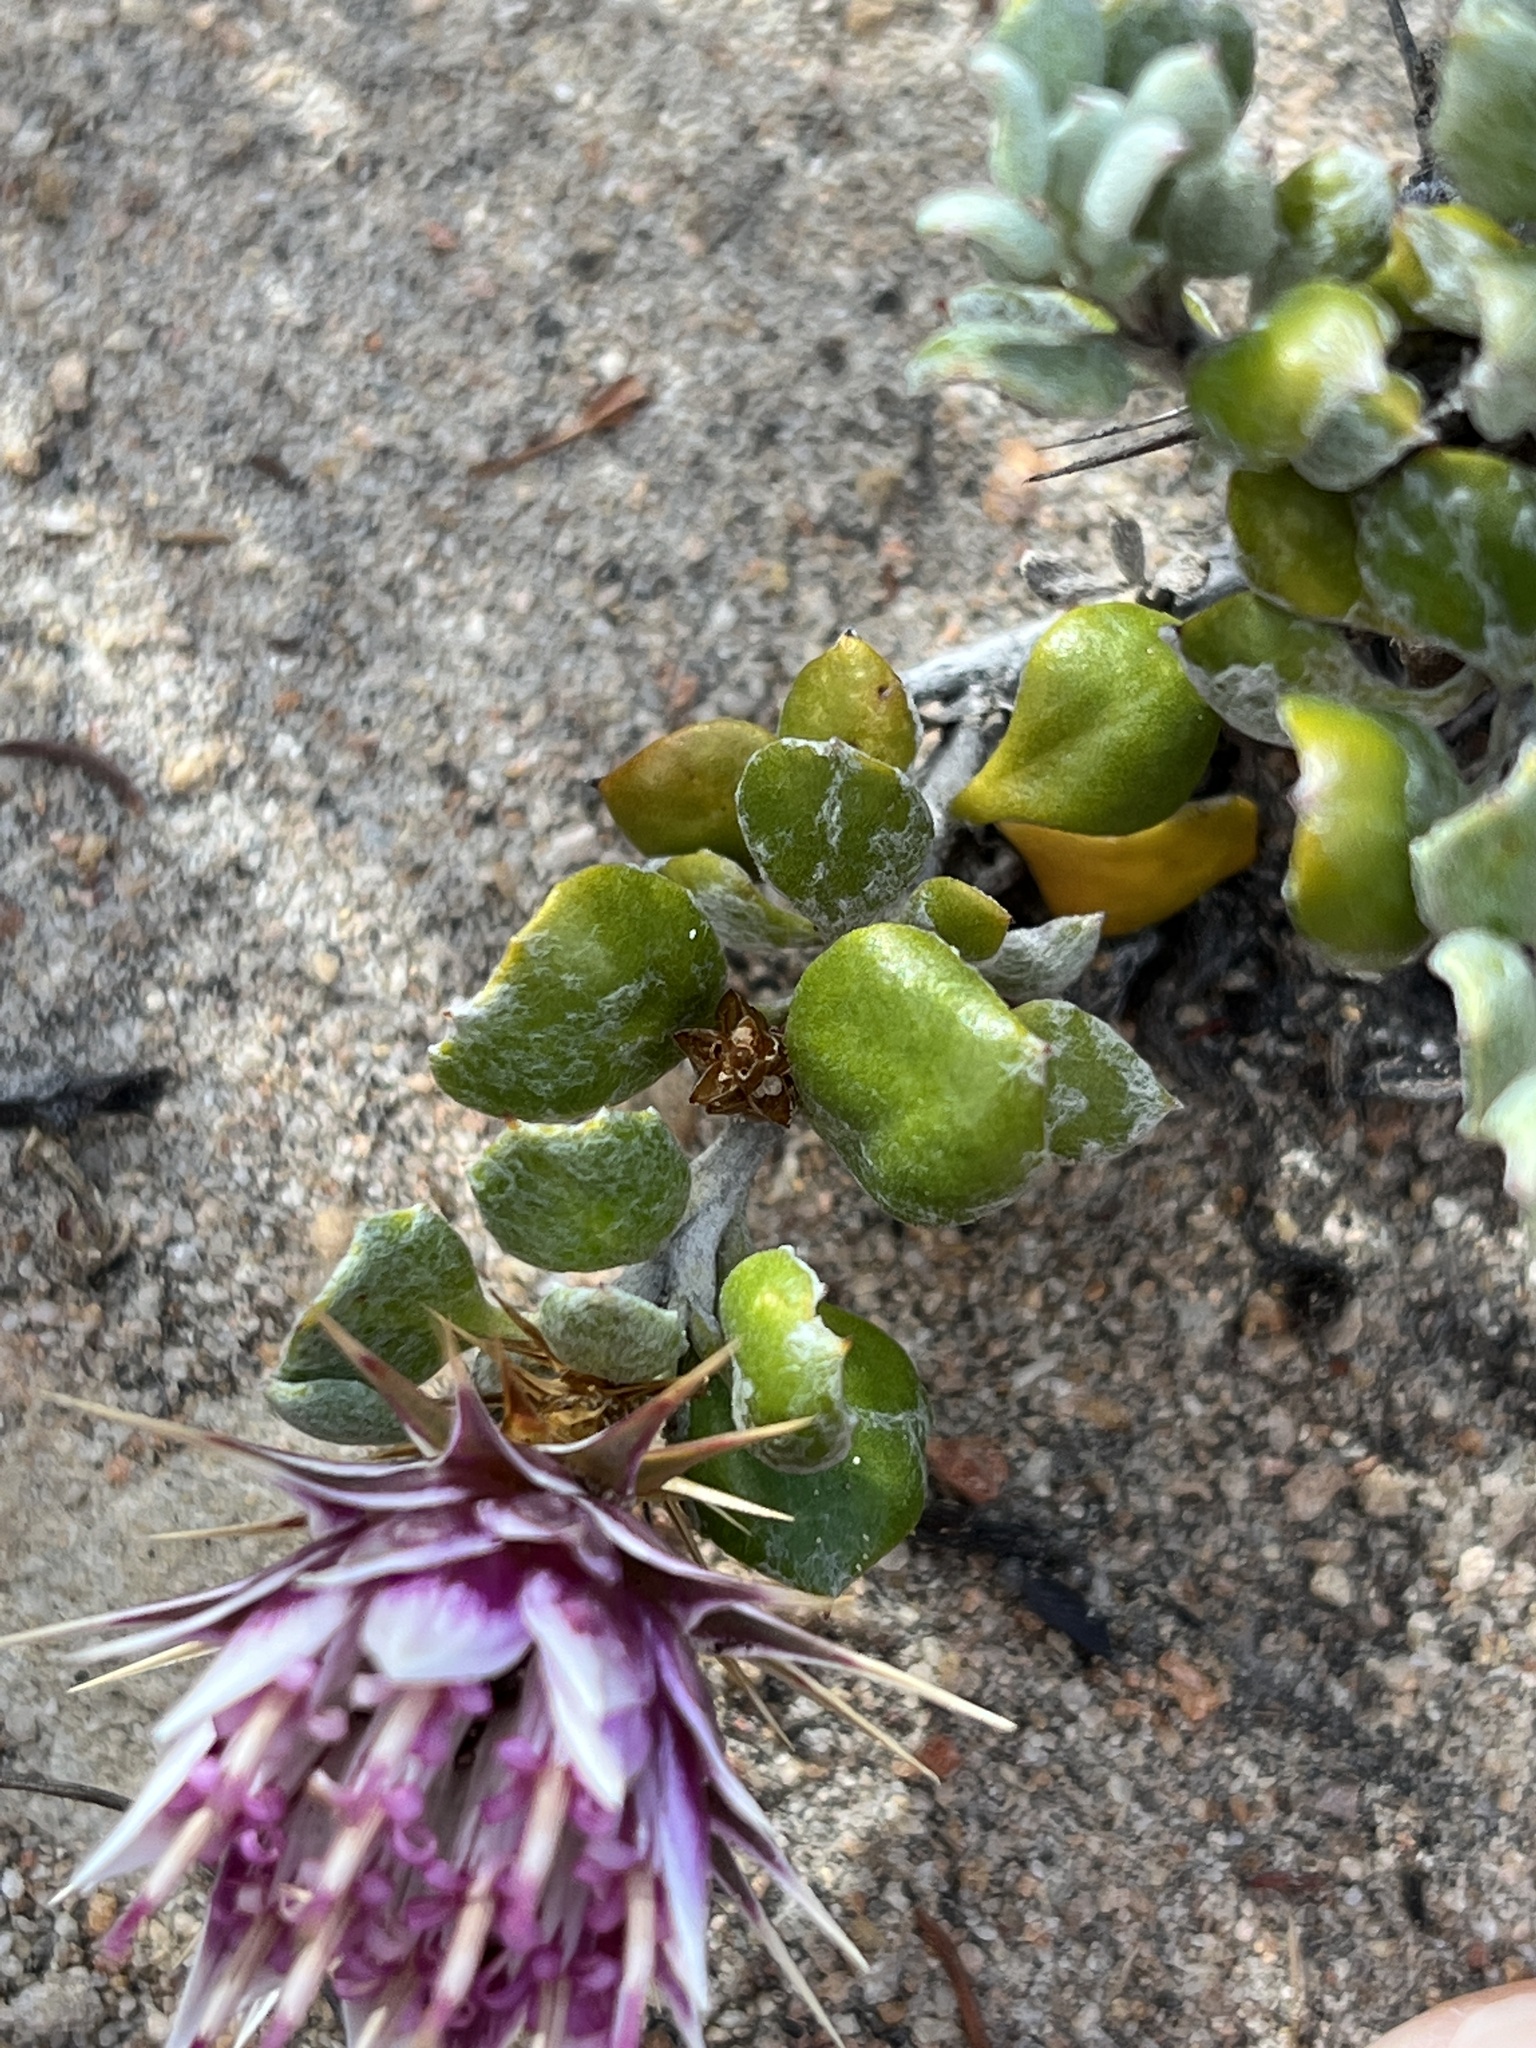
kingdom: Plantae
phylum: Tracheophyta
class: Magnoliopsida
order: Asterales
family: Asteraceae
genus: Macledium
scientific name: Macledium spinosum
